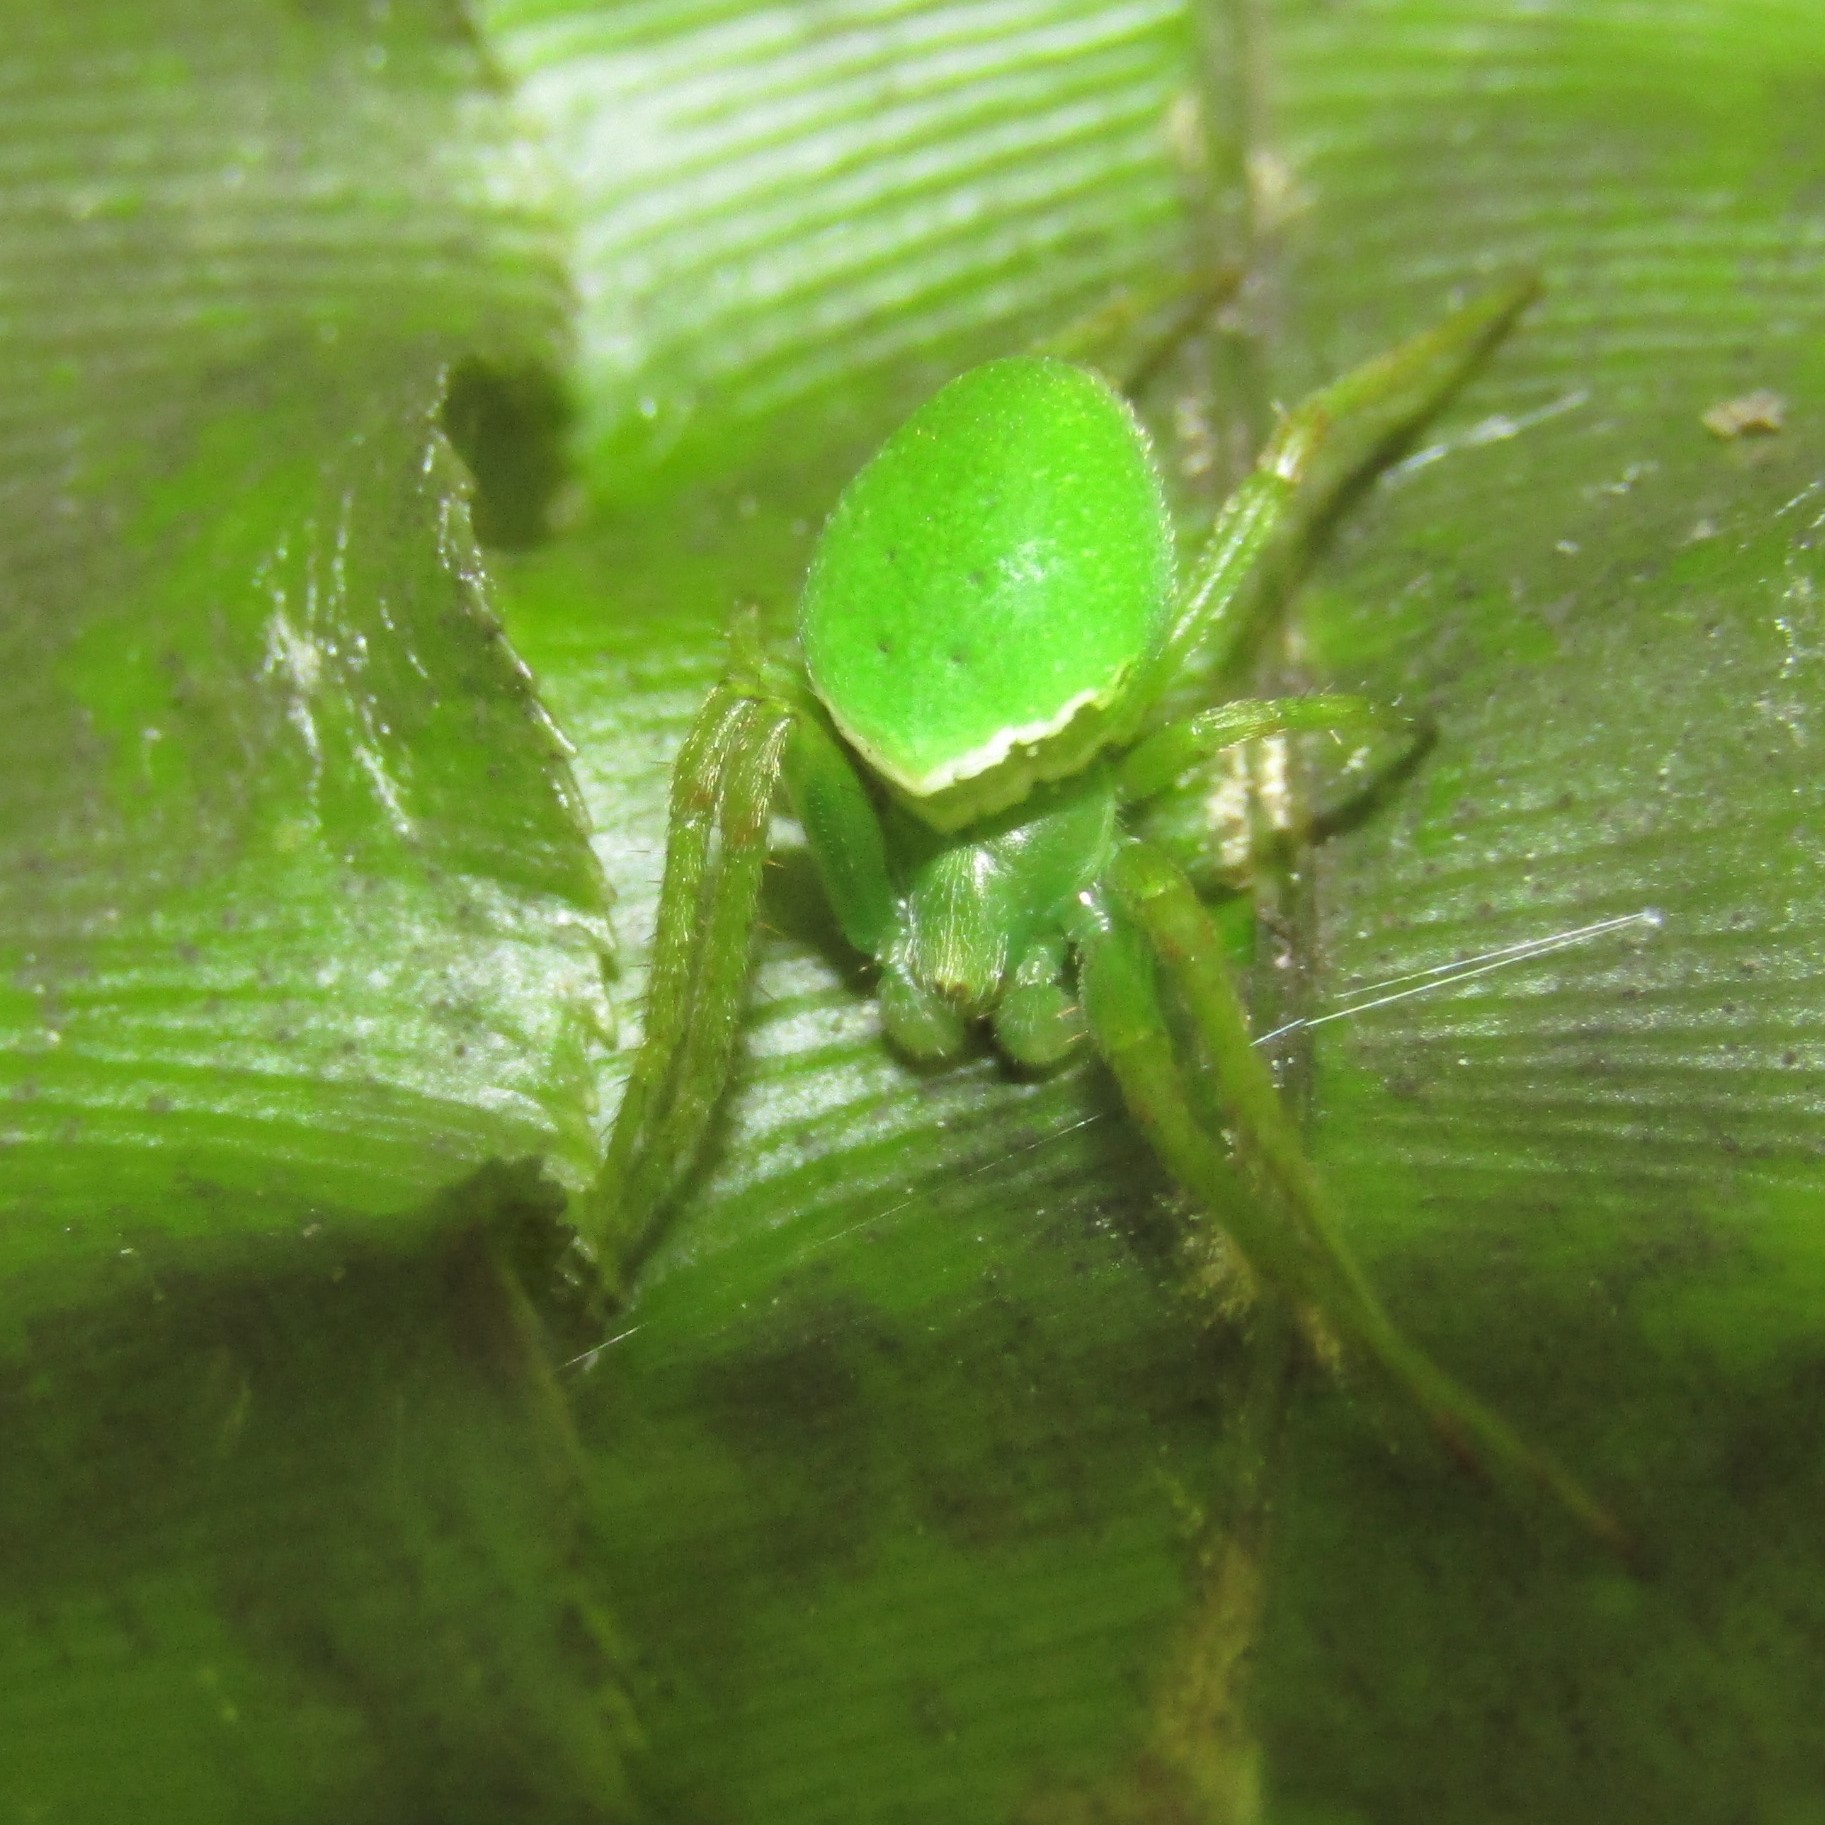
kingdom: Animalia
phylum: Arthropoda
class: Arachnida
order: Araneae
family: Araneidae
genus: Colaranea
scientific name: Colaranea viriditas
